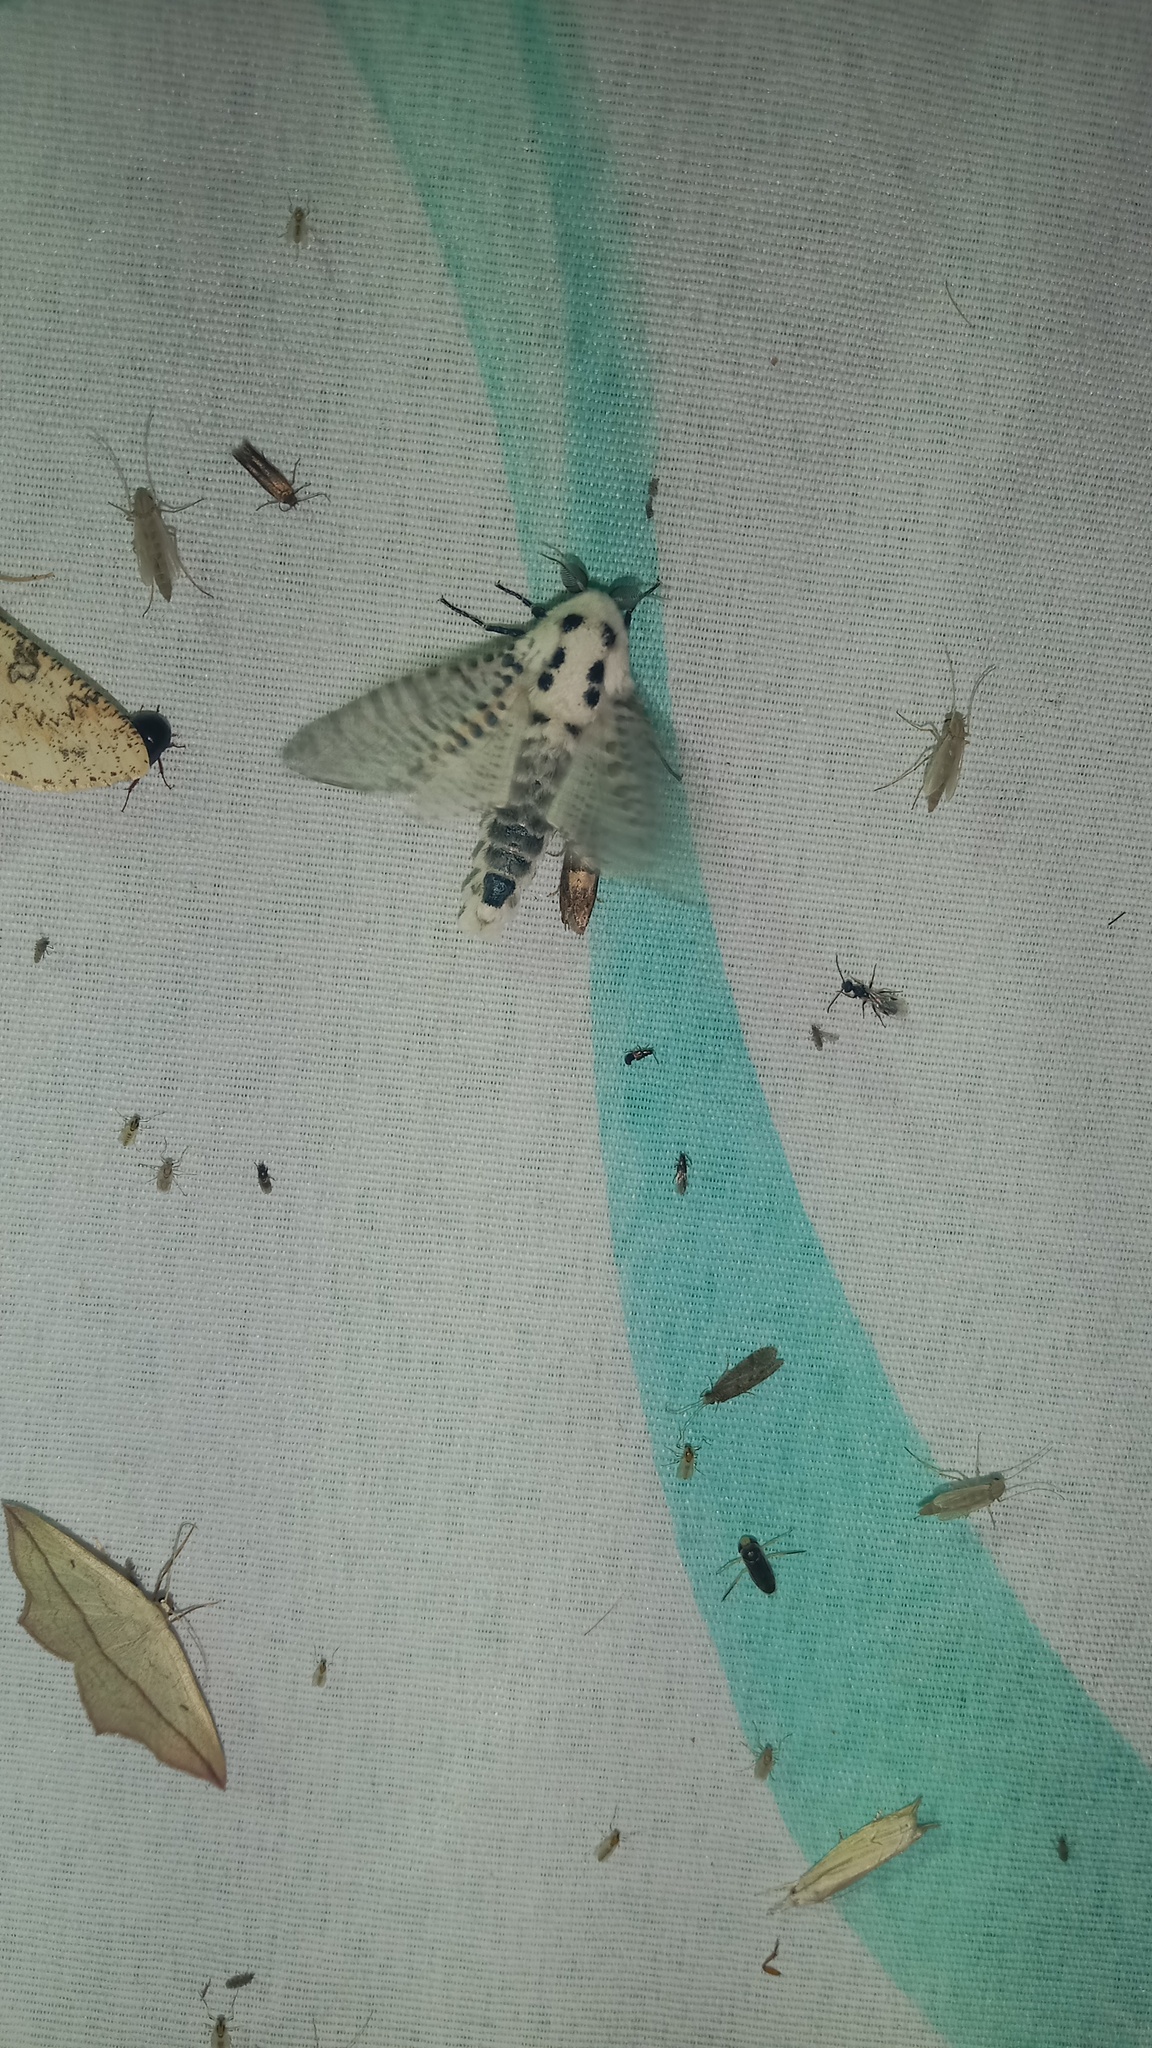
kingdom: Animalia
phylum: Arthropoda
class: Insecta
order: Lepidoptera
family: Cossidae
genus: Zeuzera
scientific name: Zeuzera pyrina
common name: Leopard moth
